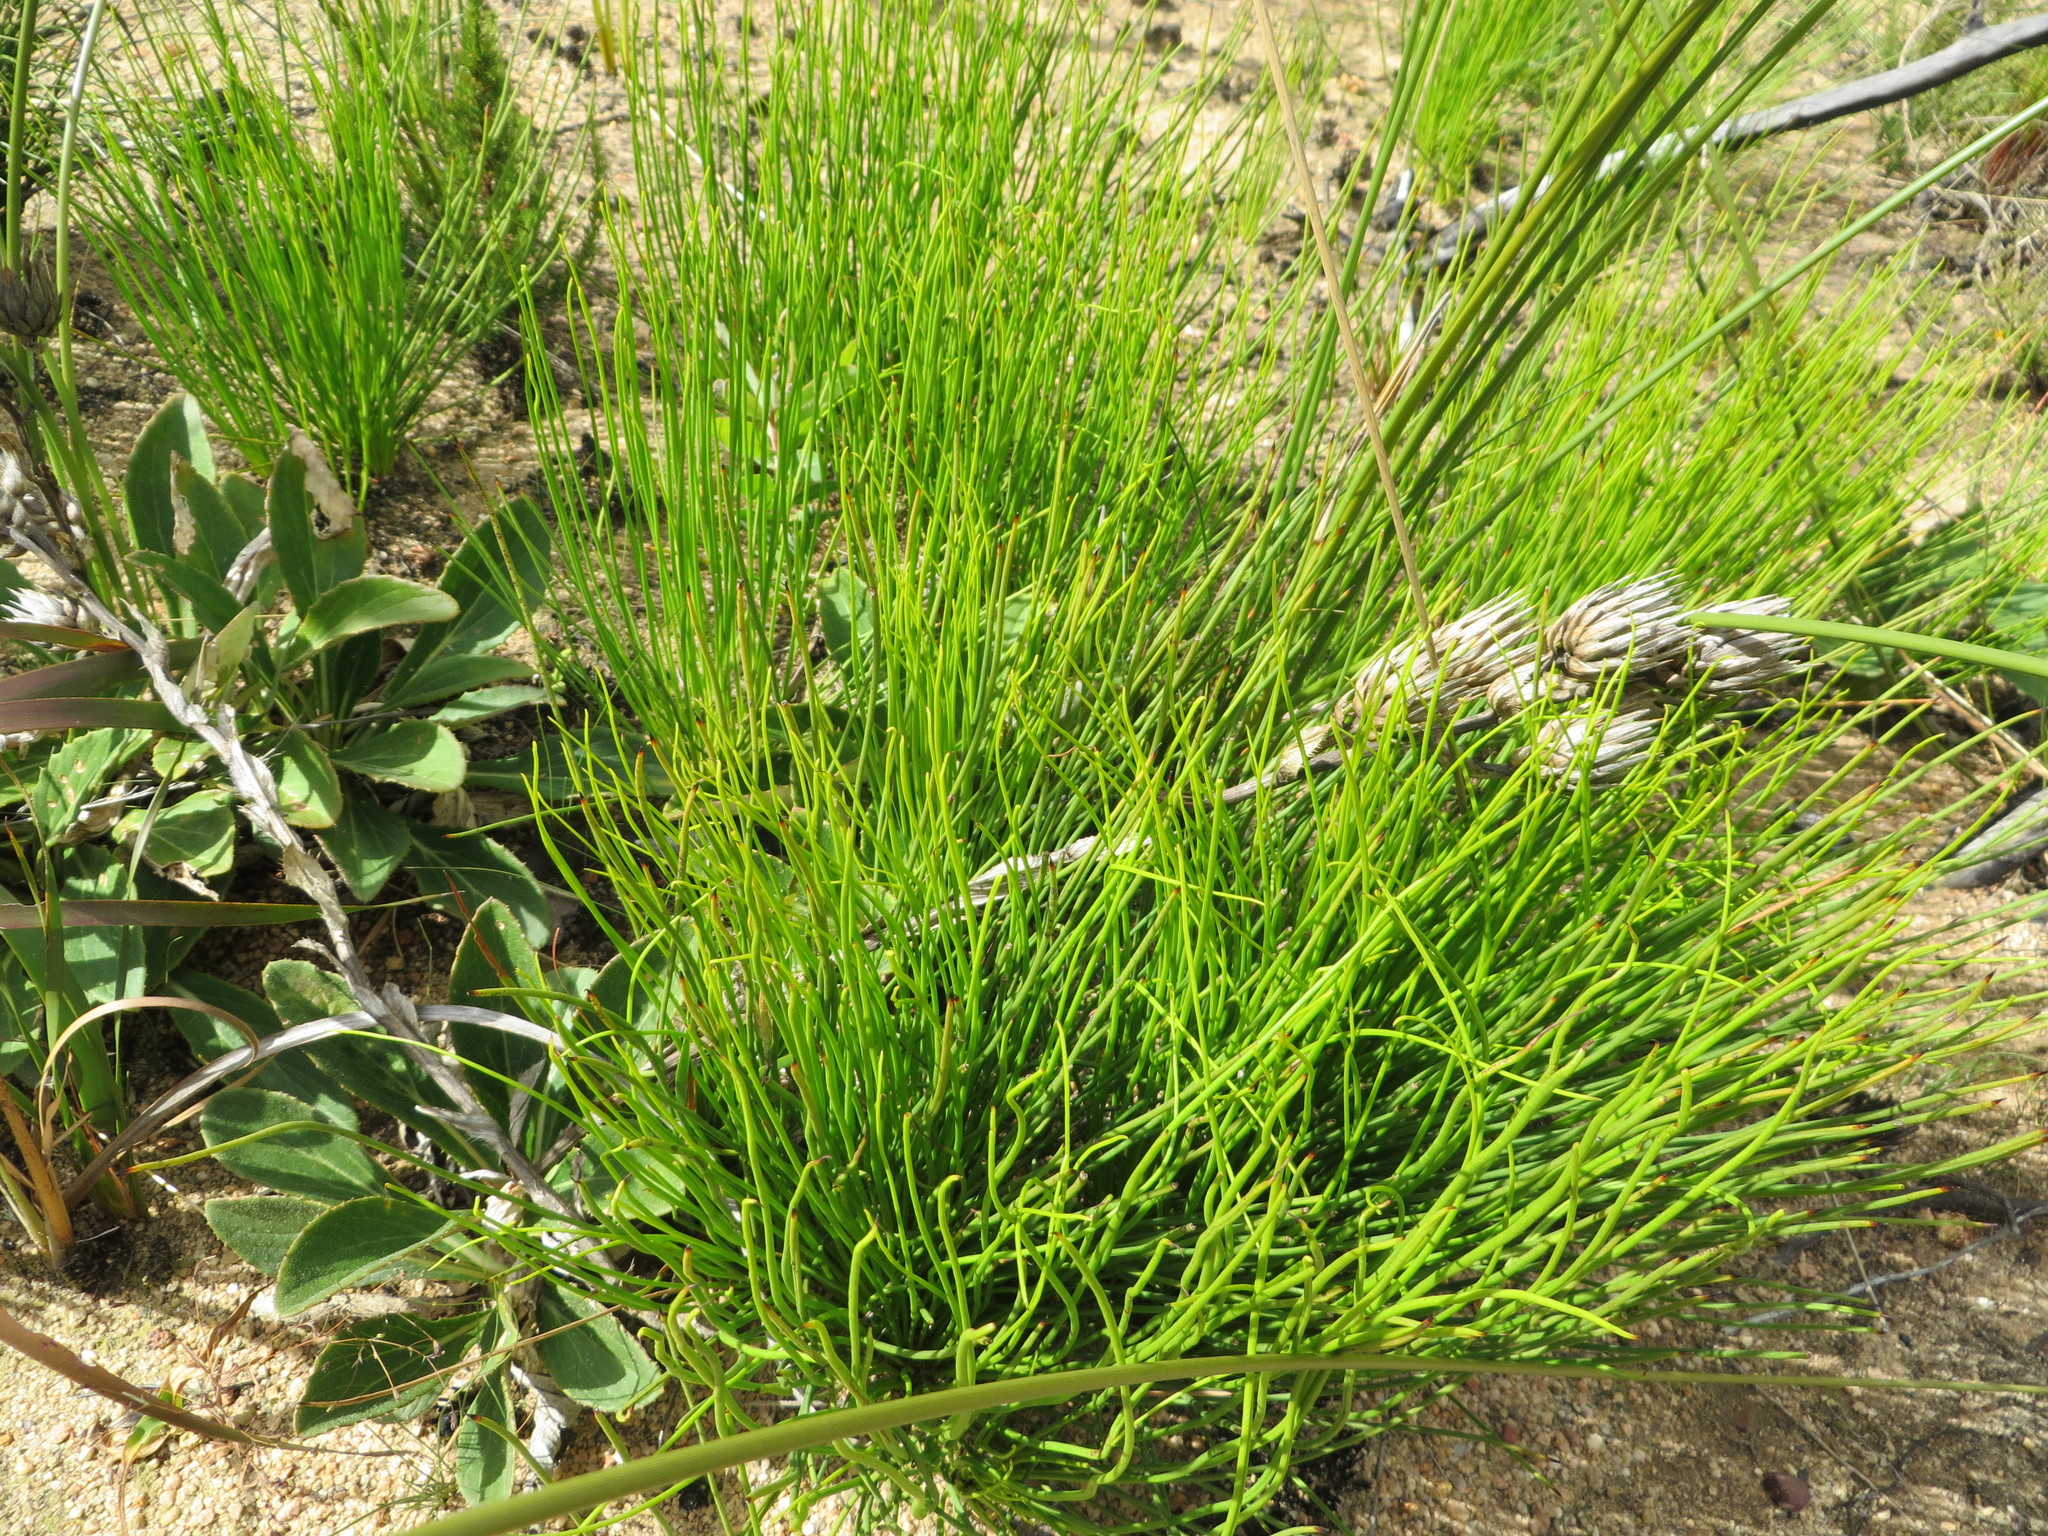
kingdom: Plantae
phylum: Tracheophyta
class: Magnoliopsida
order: Proteales
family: Proteaceae
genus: Protea
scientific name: Protea lorea
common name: Thong-leaf sugarbush
